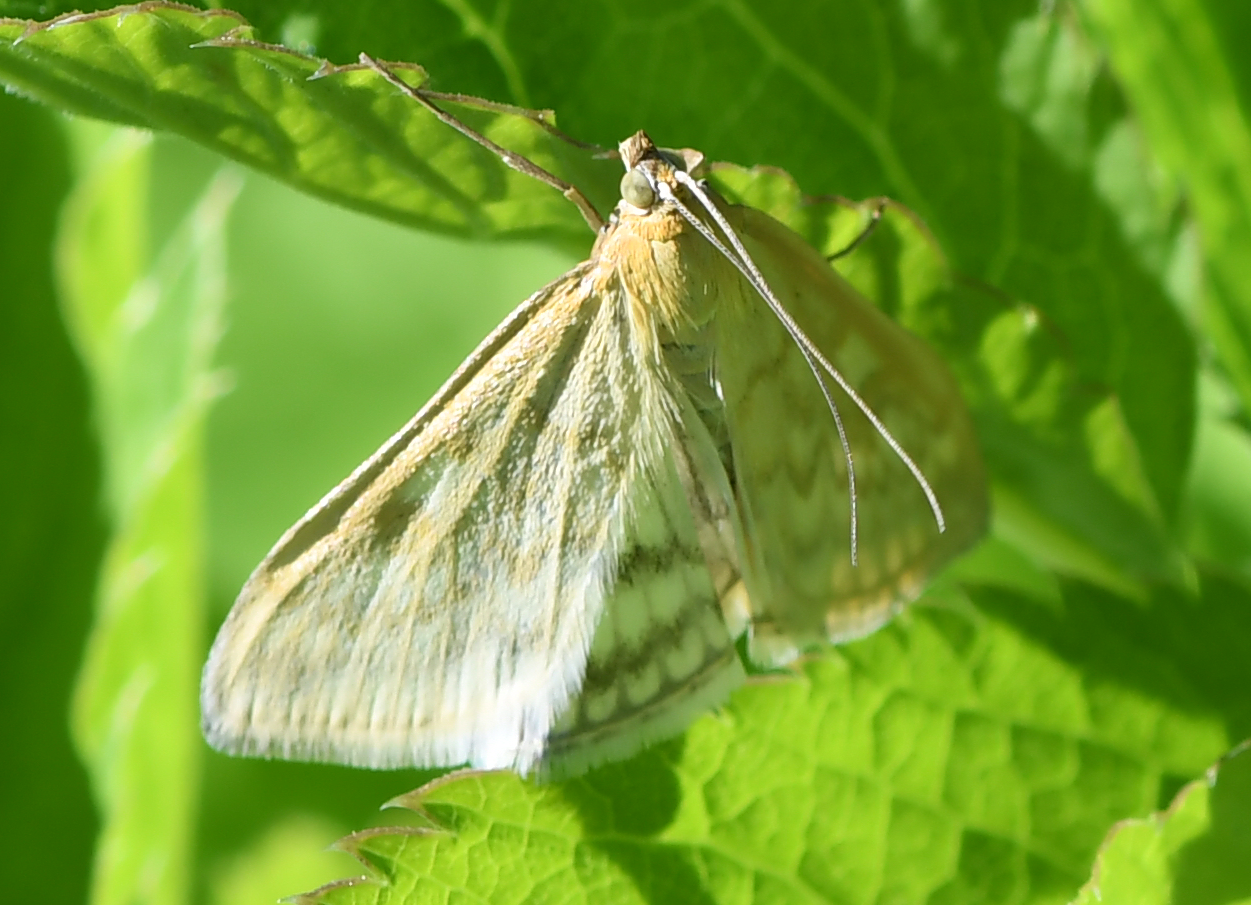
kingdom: Animalia
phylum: Arthropoda
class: Insecta
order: Lepidoptera
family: Crambidae
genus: Sitochroa
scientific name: Sitochroa verticalis
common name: Lesser pearl
